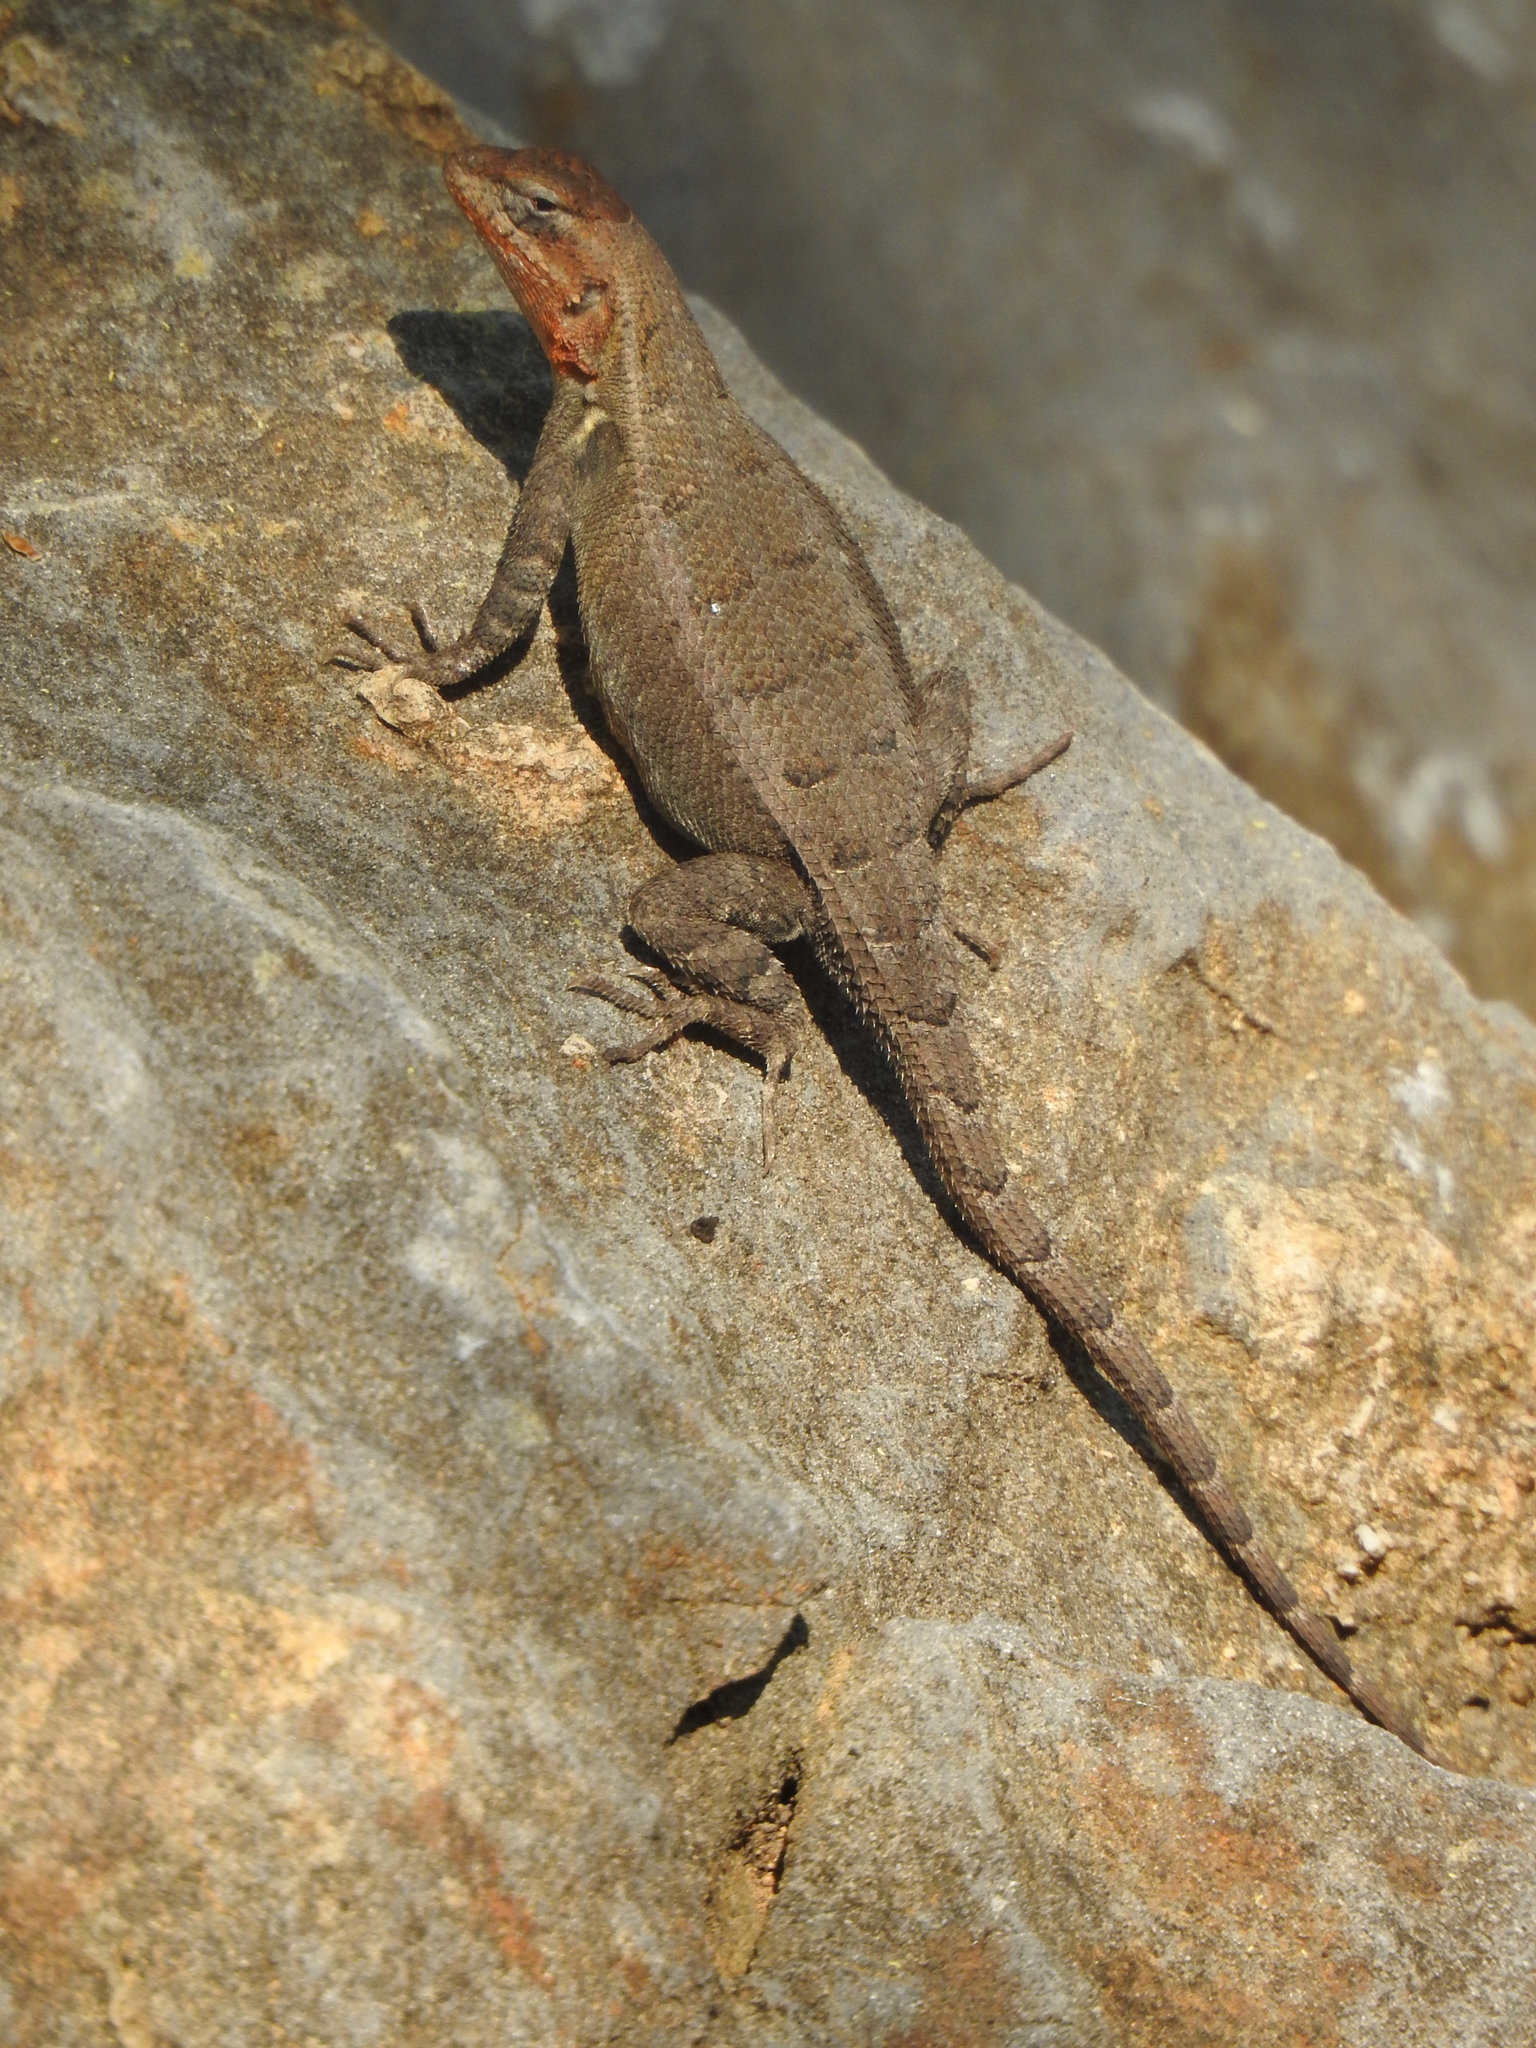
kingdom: Animalia
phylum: Chordata
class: Squamata
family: Phrynosomatidae
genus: Sceloporus
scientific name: Sceloporus variabilis
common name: Rosebelly lizard
